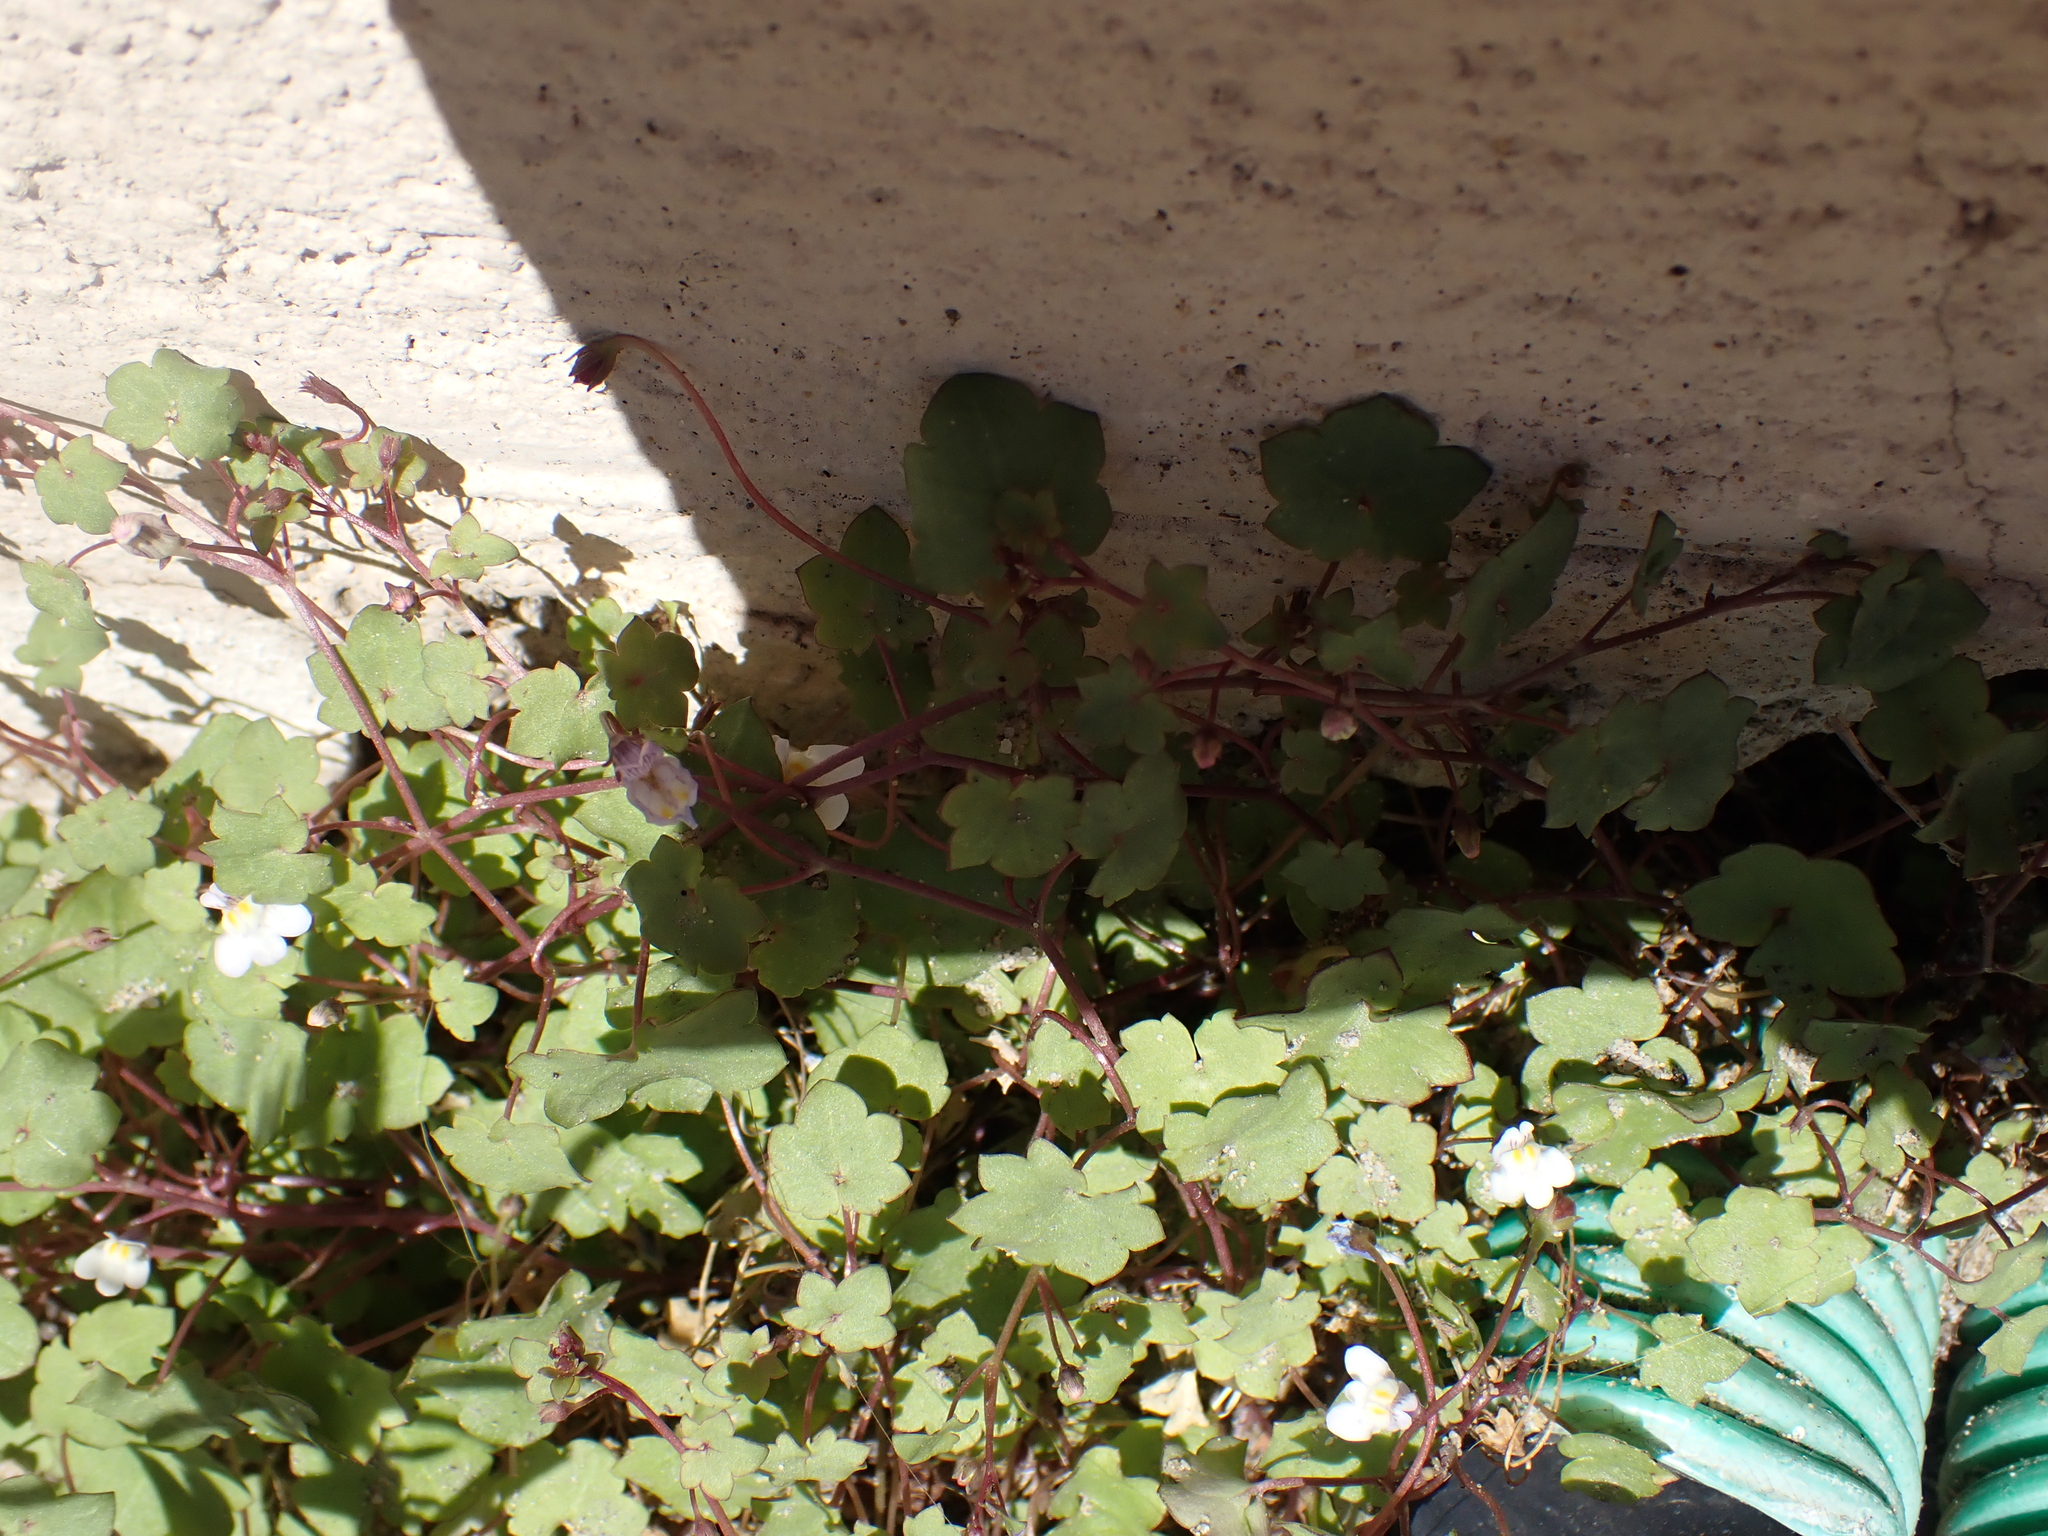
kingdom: Plantae
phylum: Tracheophyta
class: Magnoliopsida
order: Lamiales
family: Plantaginaceae
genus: Cymbalaria
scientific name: Cymbalaria muralis
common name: Ivy-leaved toadflax
